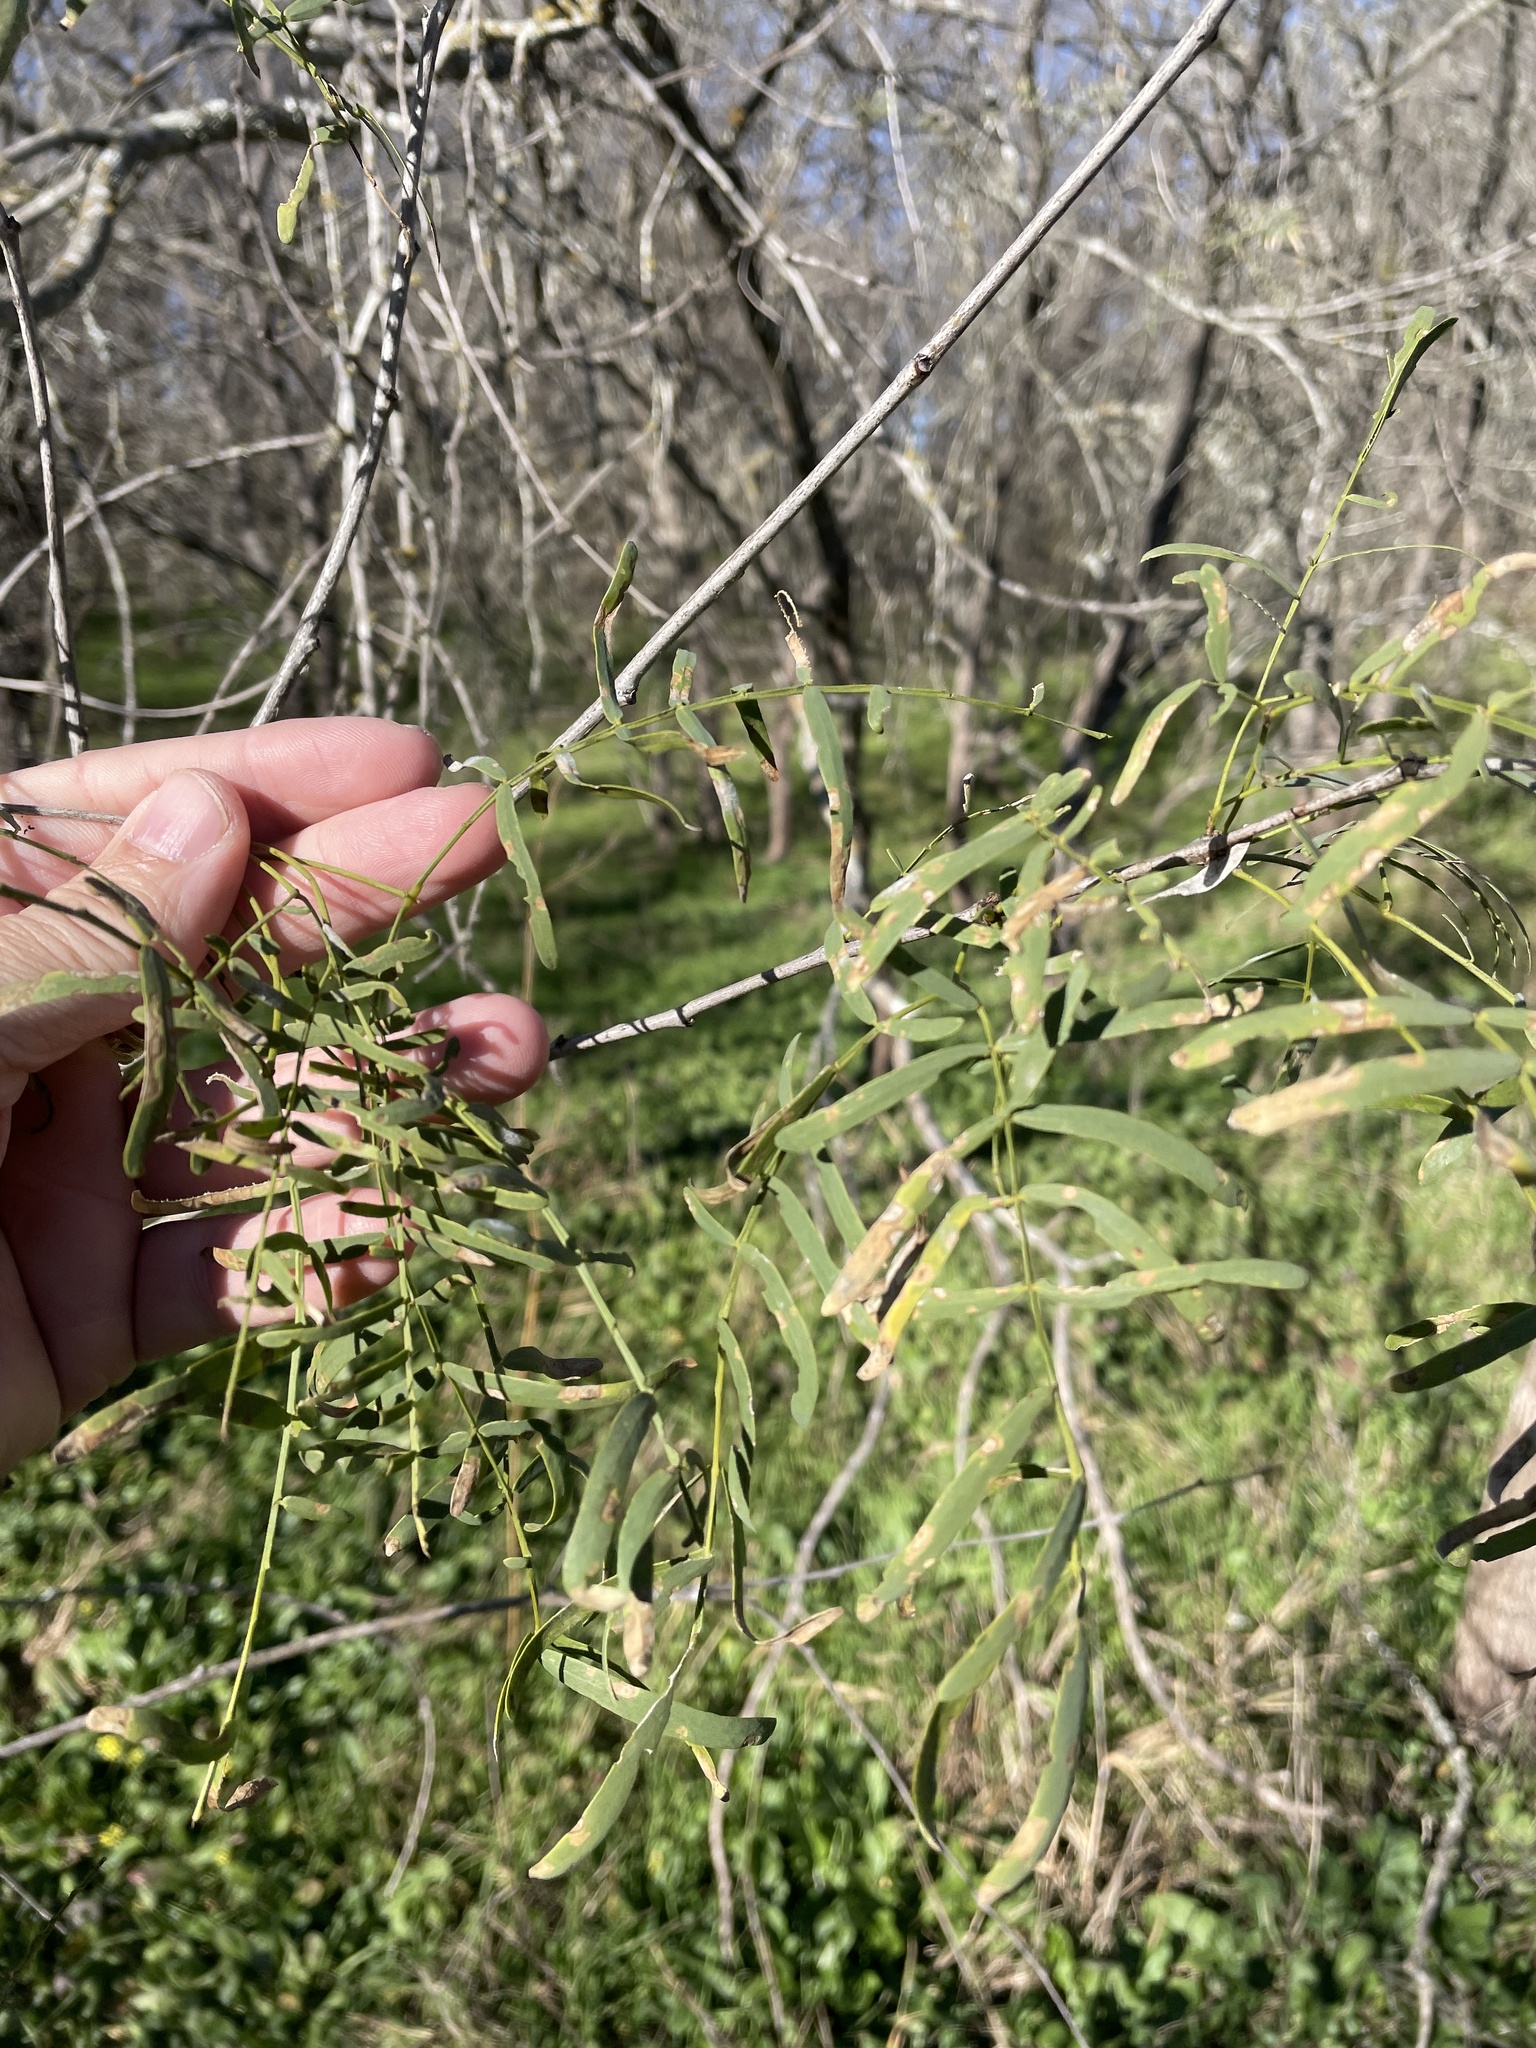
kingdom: Plantae
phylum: Tracheophyta
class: Magnoliopsida
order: Fabales
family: Fabaceae
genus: Prosopis
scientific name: Prosopis glandulosa
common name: Honey mesquite
